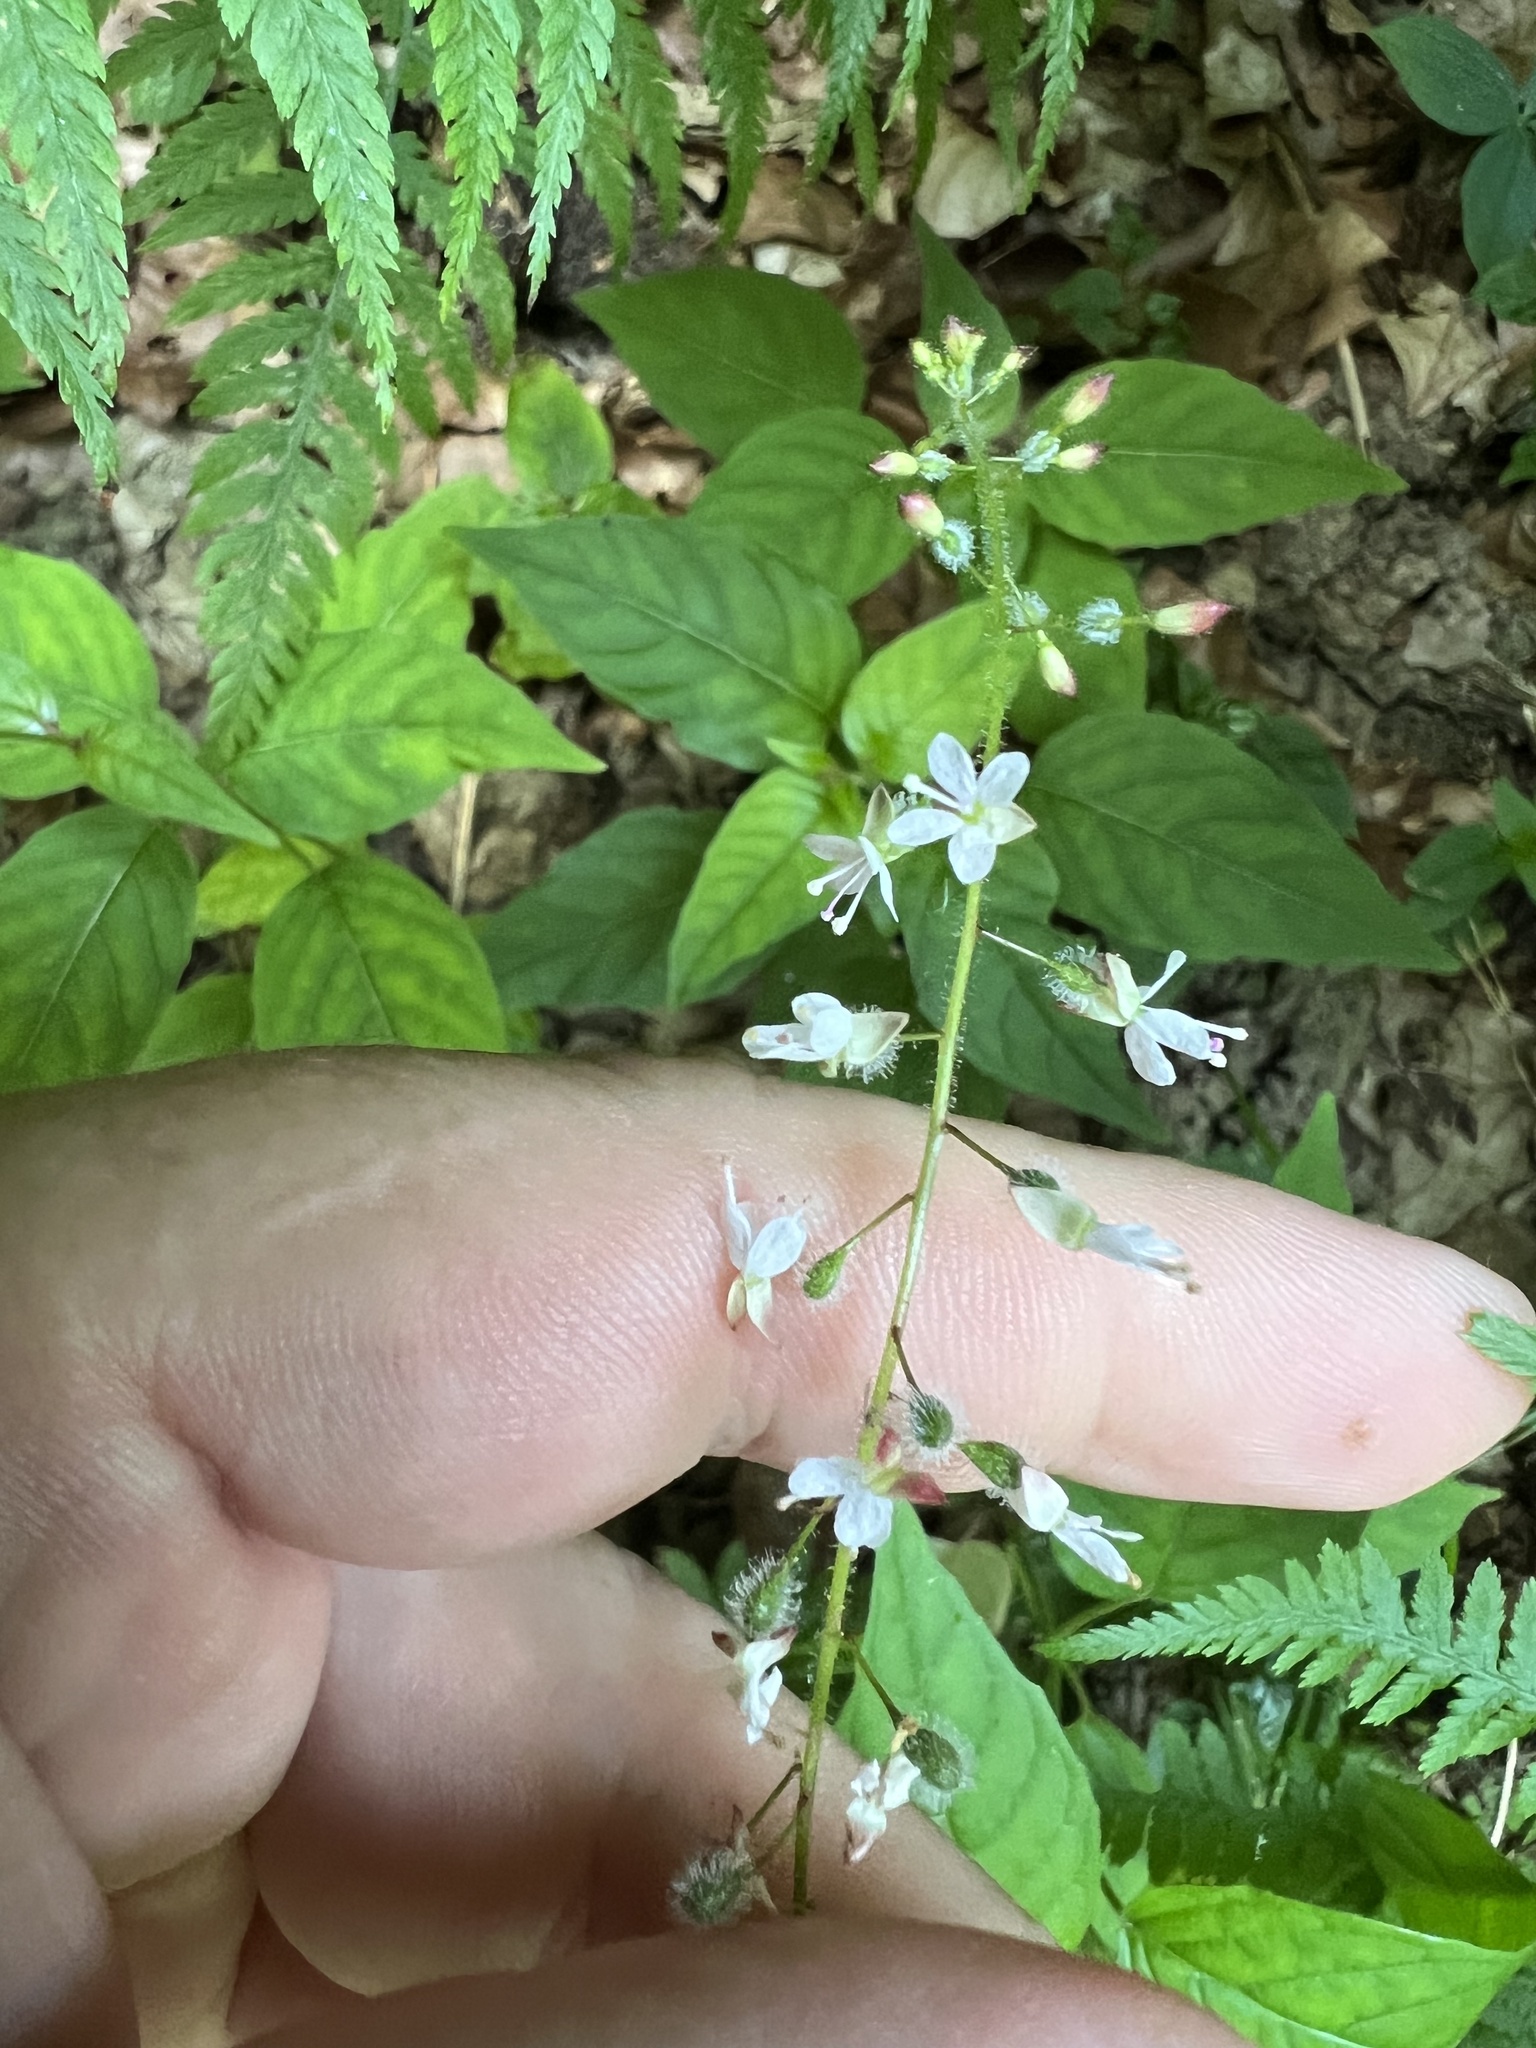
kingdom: Plantae
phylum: Tracheophyta
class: Magnoliopsida
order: Myrtales
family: Onagraceae
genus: Circaea
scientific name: Circaea lutetiana
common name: Enchanter's-nightshade
